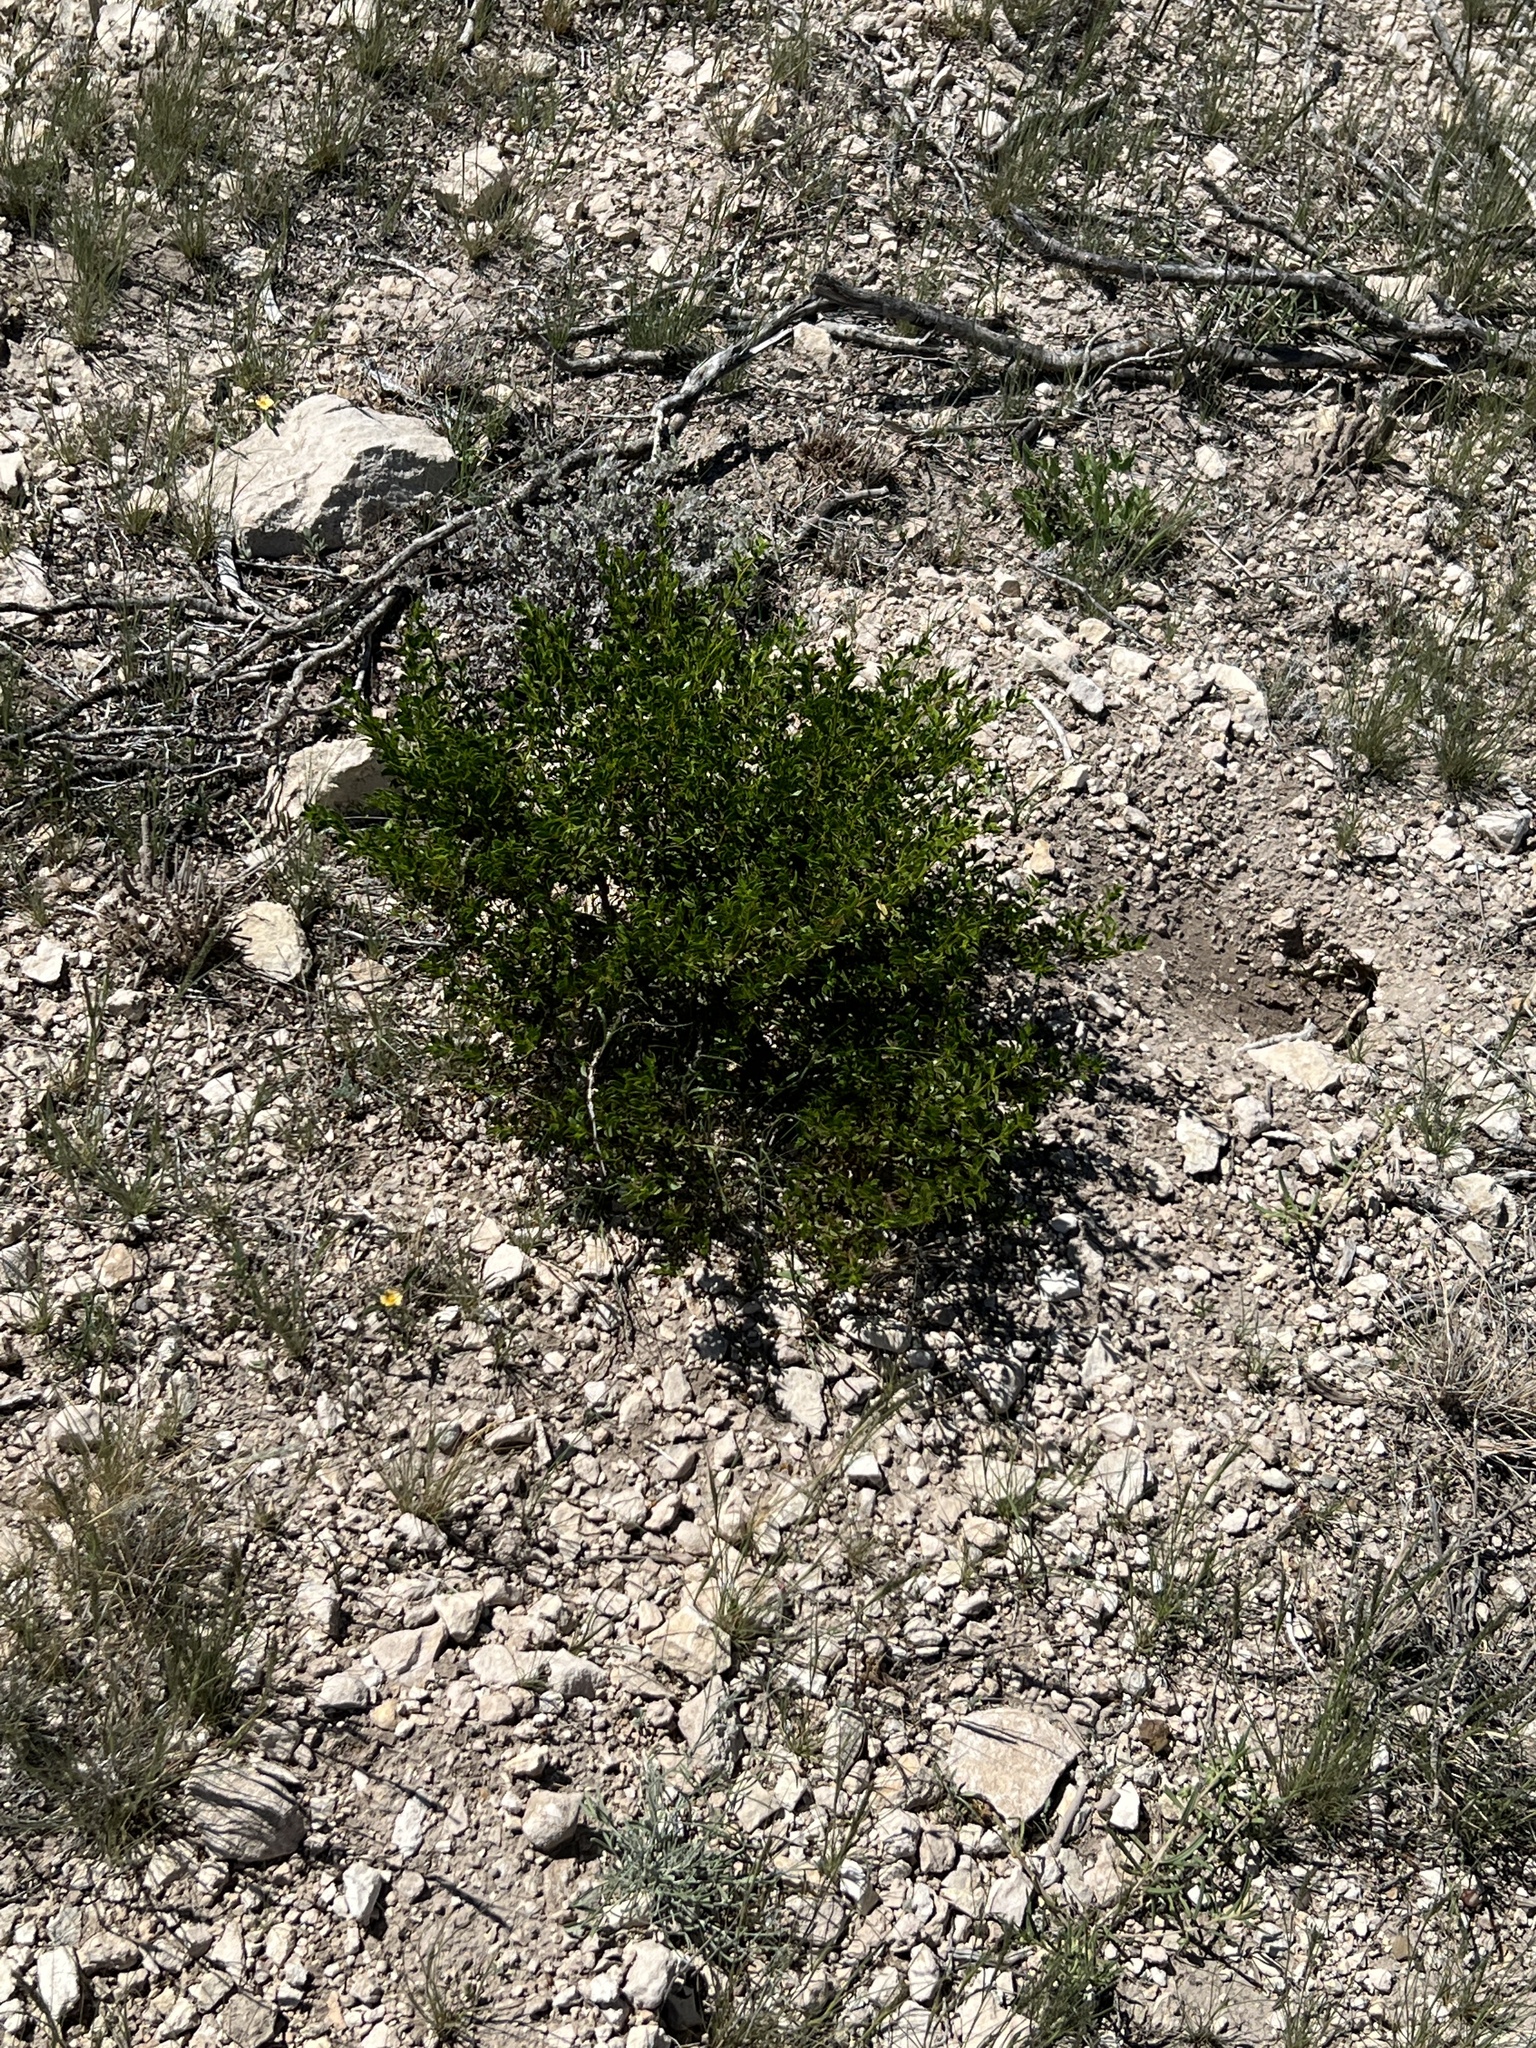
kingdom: Plantae
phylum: Tracheophyta
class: Magnoliopsida
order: Zygophyllales
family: Zygophyllaceae
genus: Larrea
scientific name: Larrea tridentata
